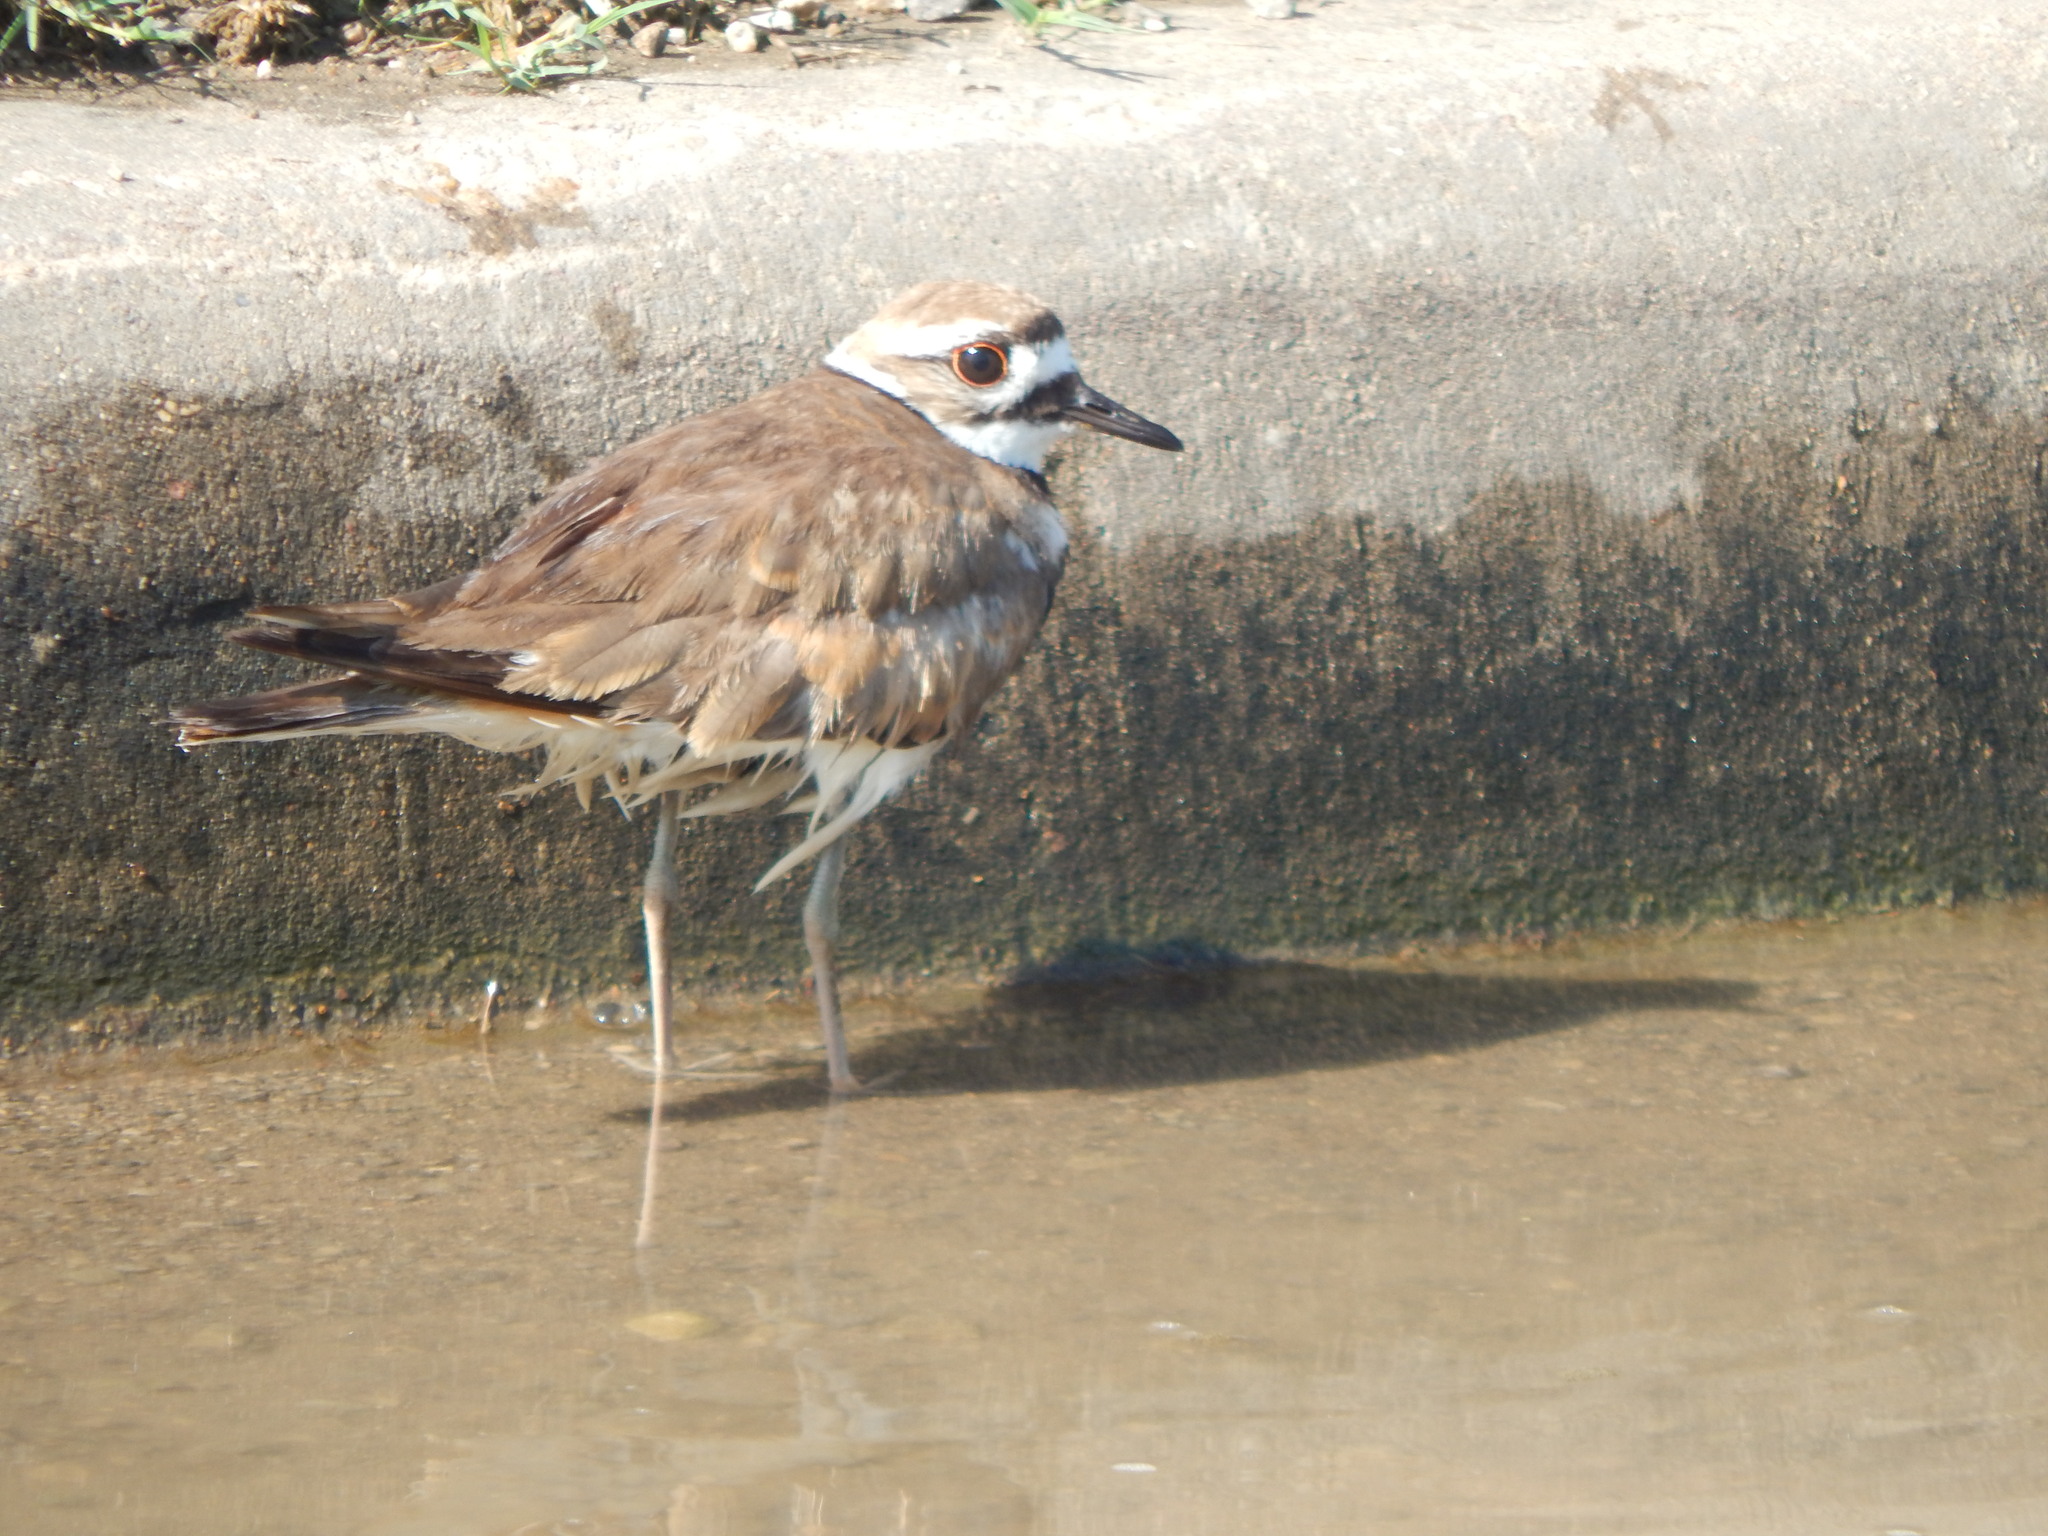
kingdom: Animalia
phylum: Chordata
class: Aves
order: Charadriiformes
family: Charadriidae
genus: Charadrius
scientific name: Charadrius vociferus
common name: Killdeer
